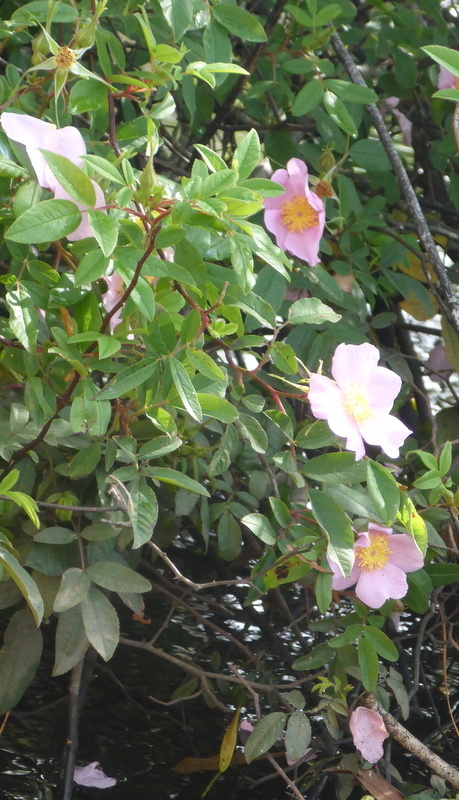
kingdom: Plantae
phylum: Tracheophyta
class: Magnoliopsida
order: Rosales
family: Rosaceae
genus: Rosa
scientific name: Rosa palustris
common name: Swamp rose
